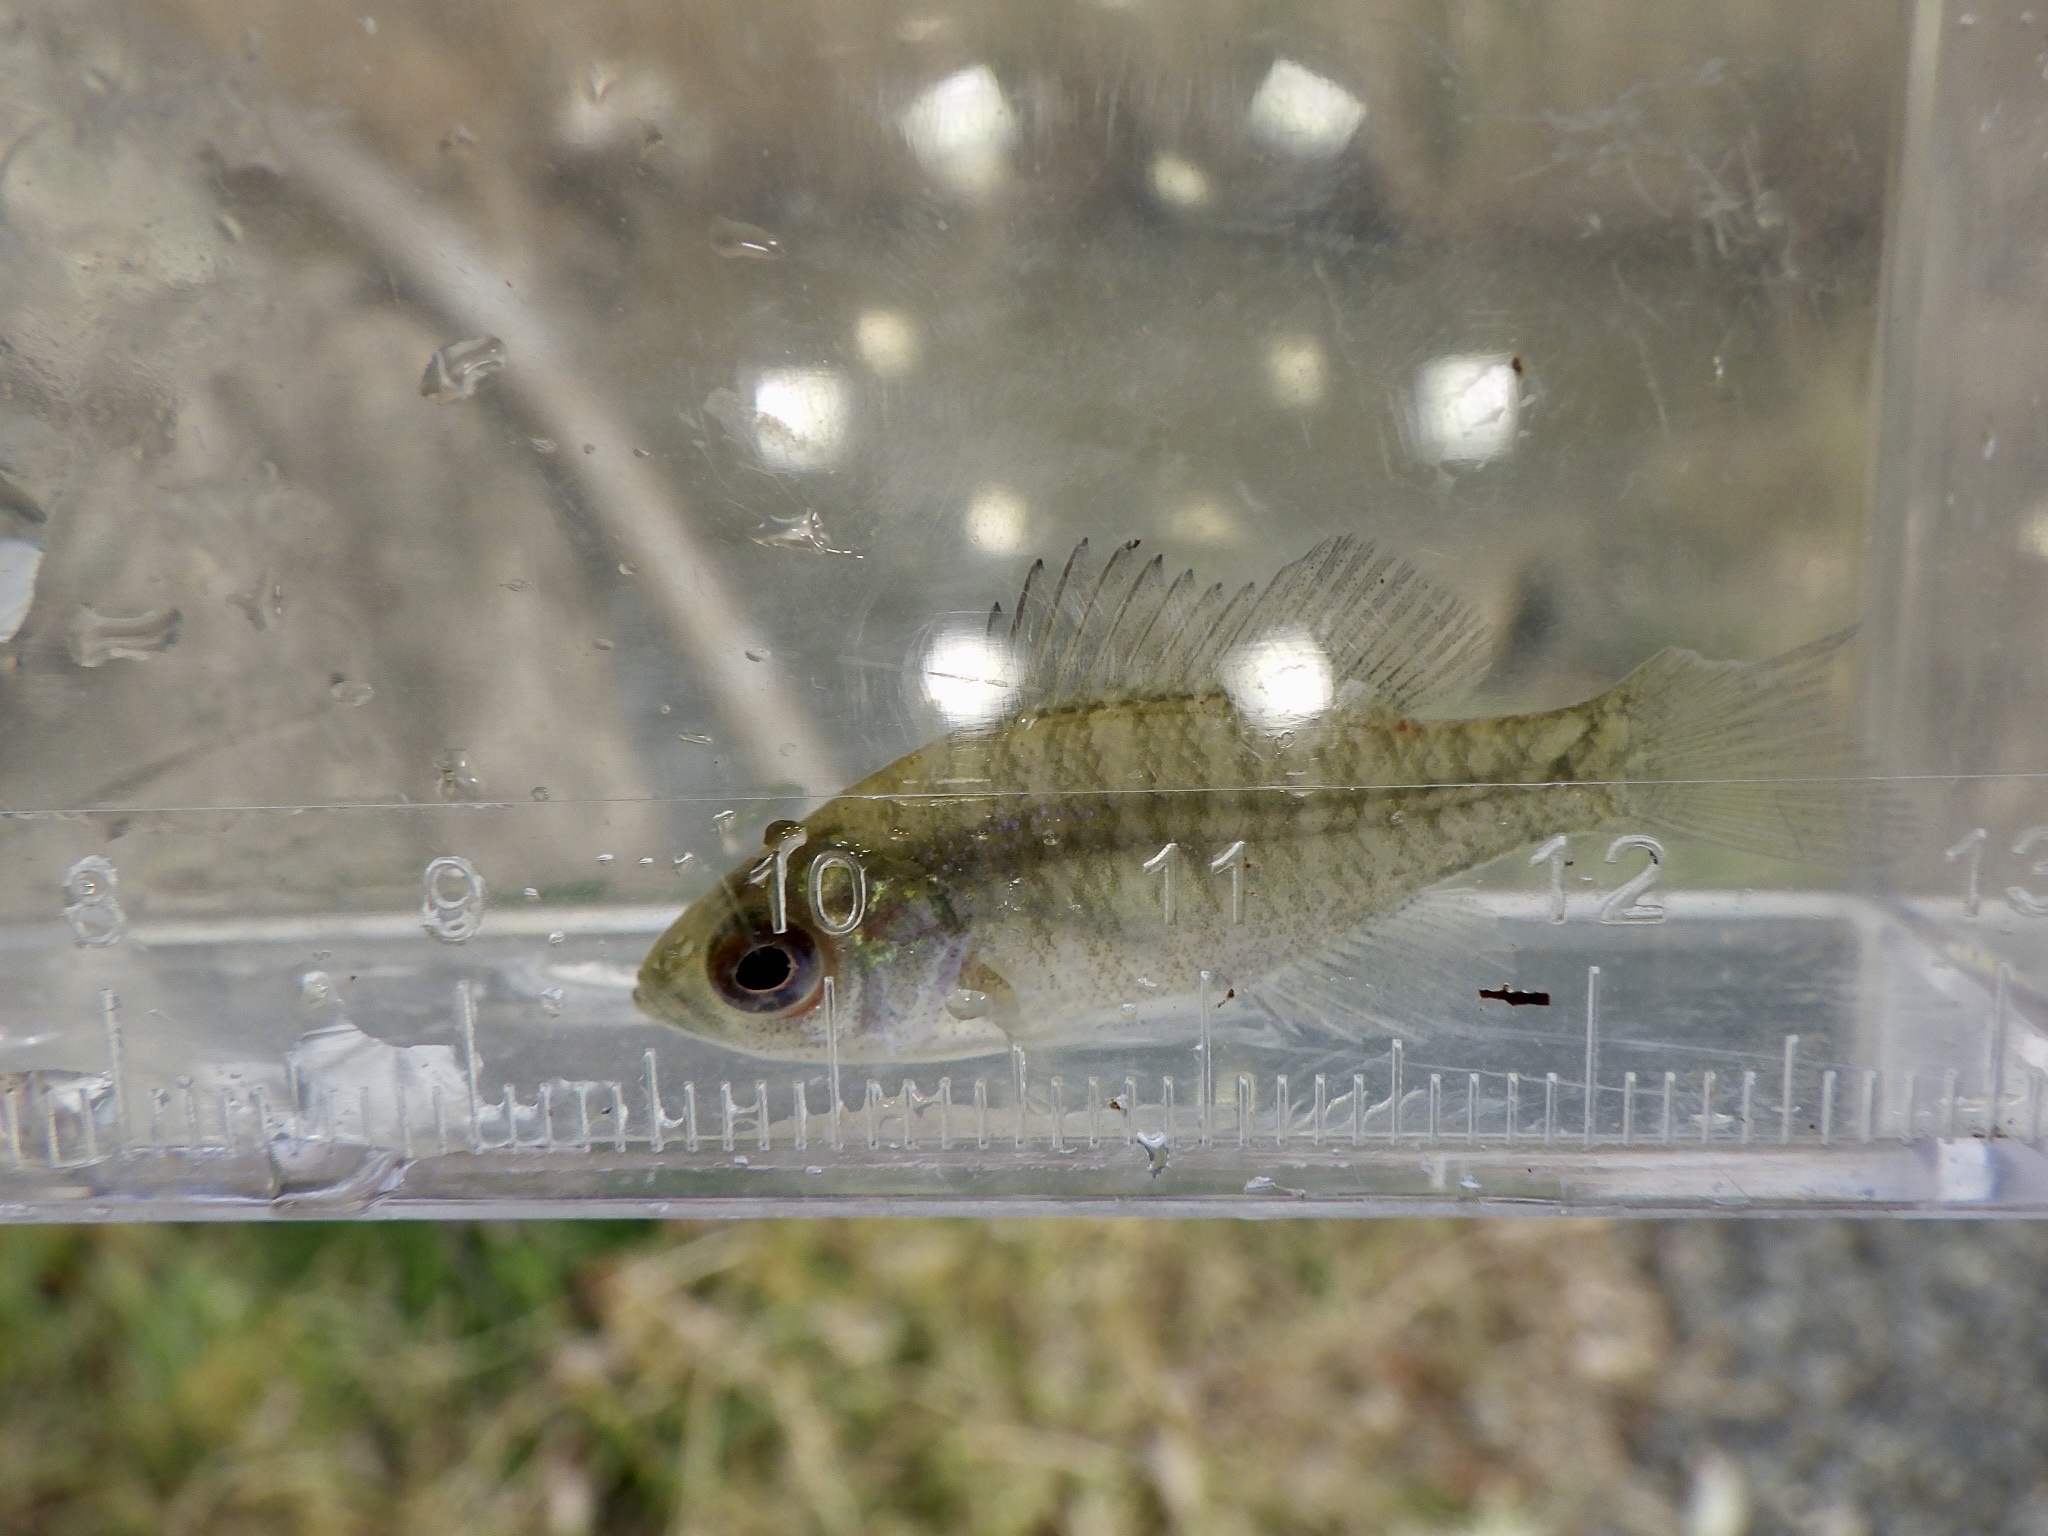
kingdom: Animalia
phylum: Chordata
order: Perciformes
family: Centrarchidae
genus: Lepomis
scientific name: Lepomis macrochirus
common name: Bluegill
